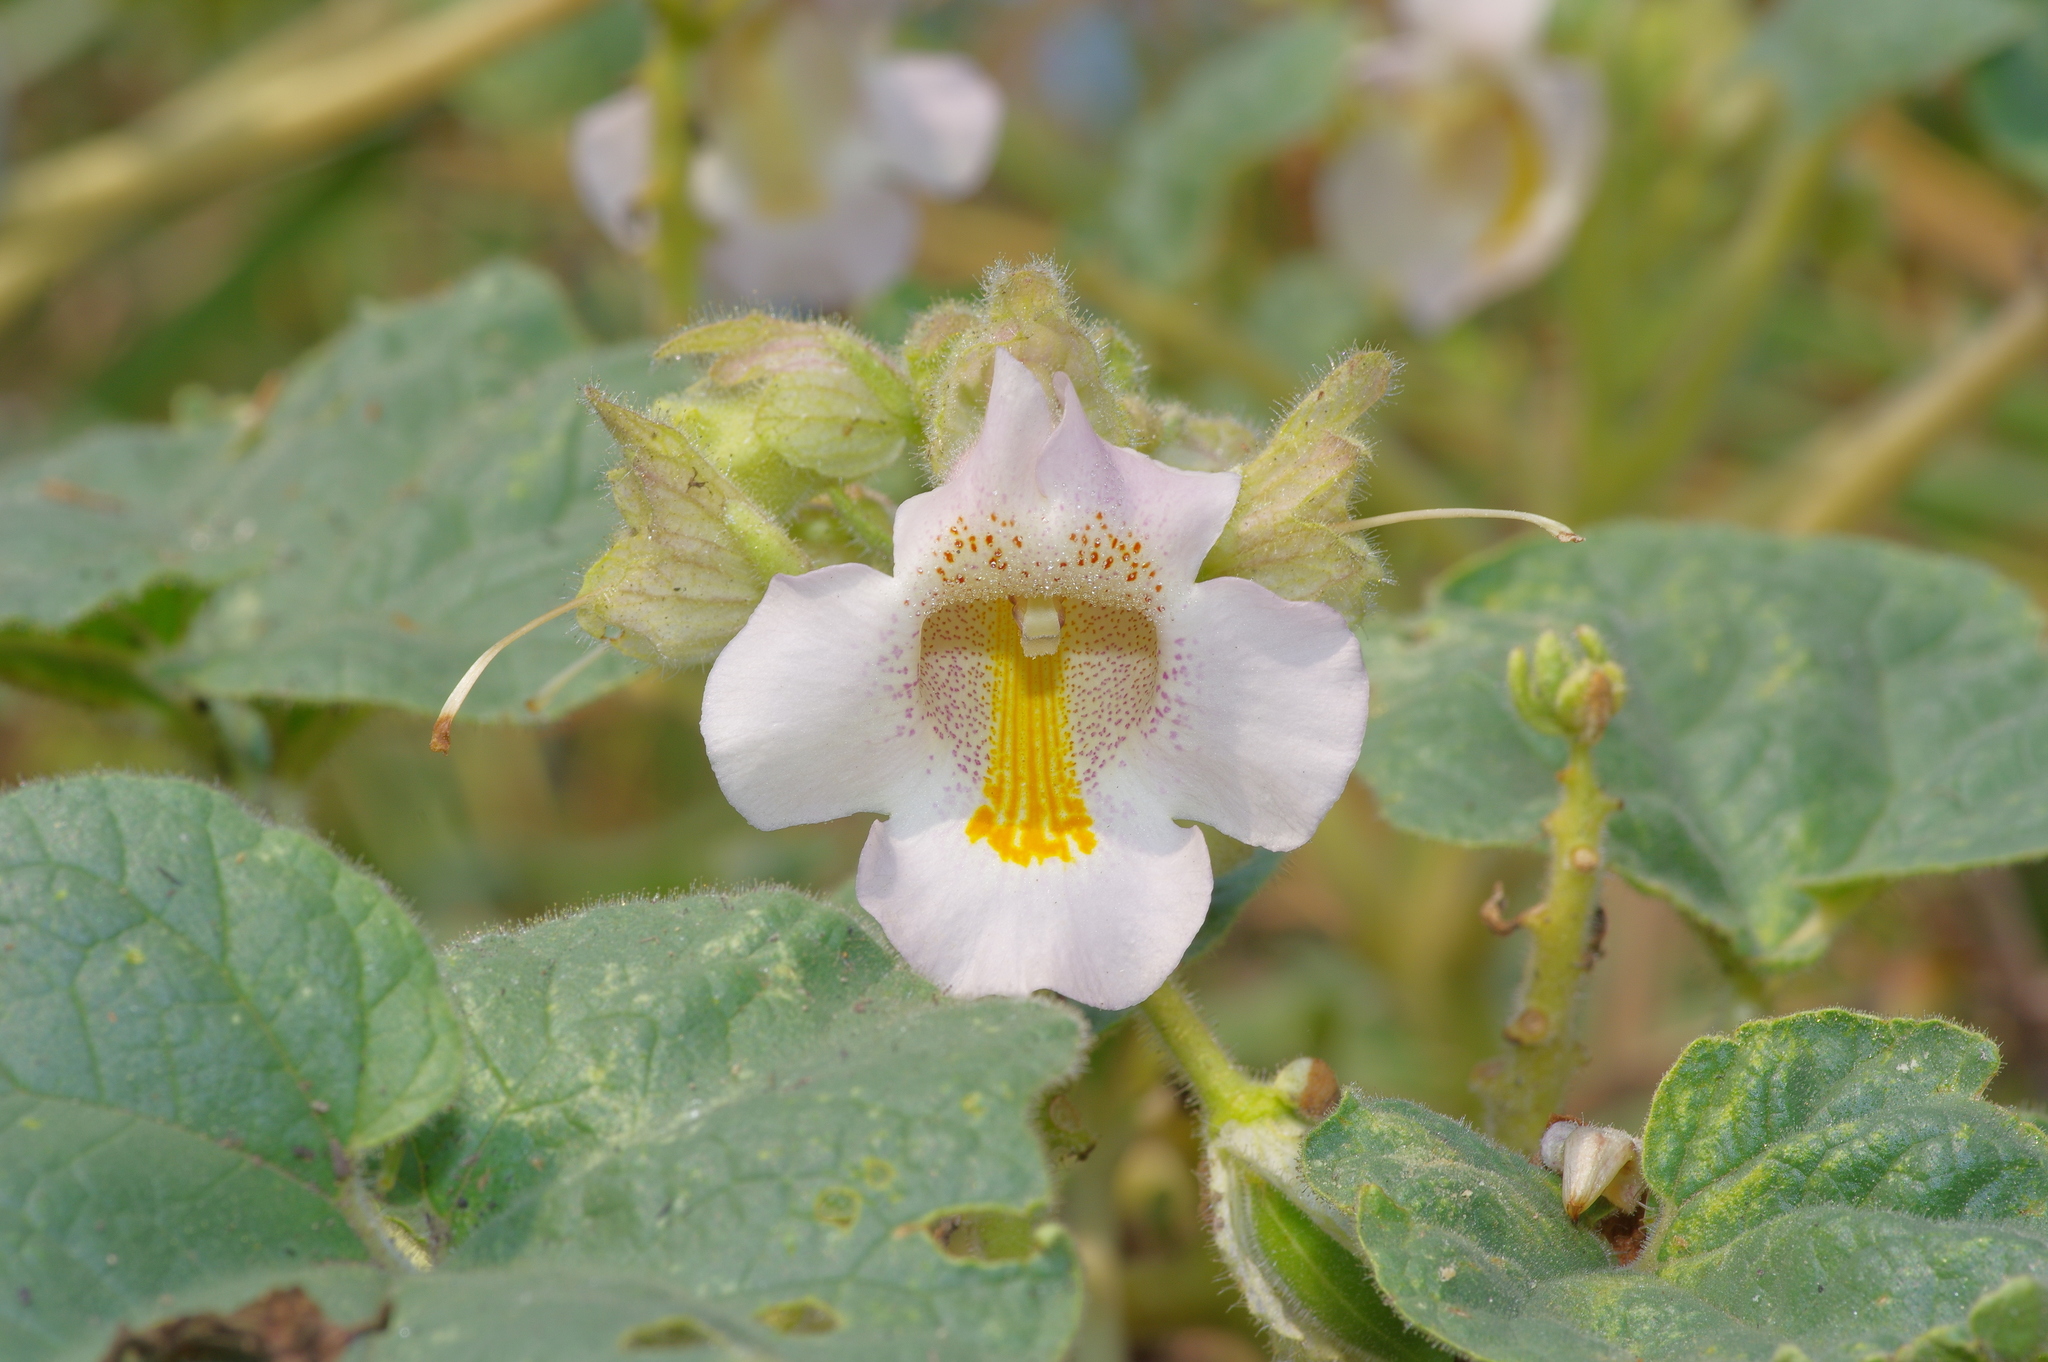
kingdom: Plantae
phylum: Tracheophyta
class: Magnoliopsida
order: Lamiales
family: Martyniaceae
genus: Proboscidea
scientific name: Proboscidea louisianica
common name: Elephant tusks
